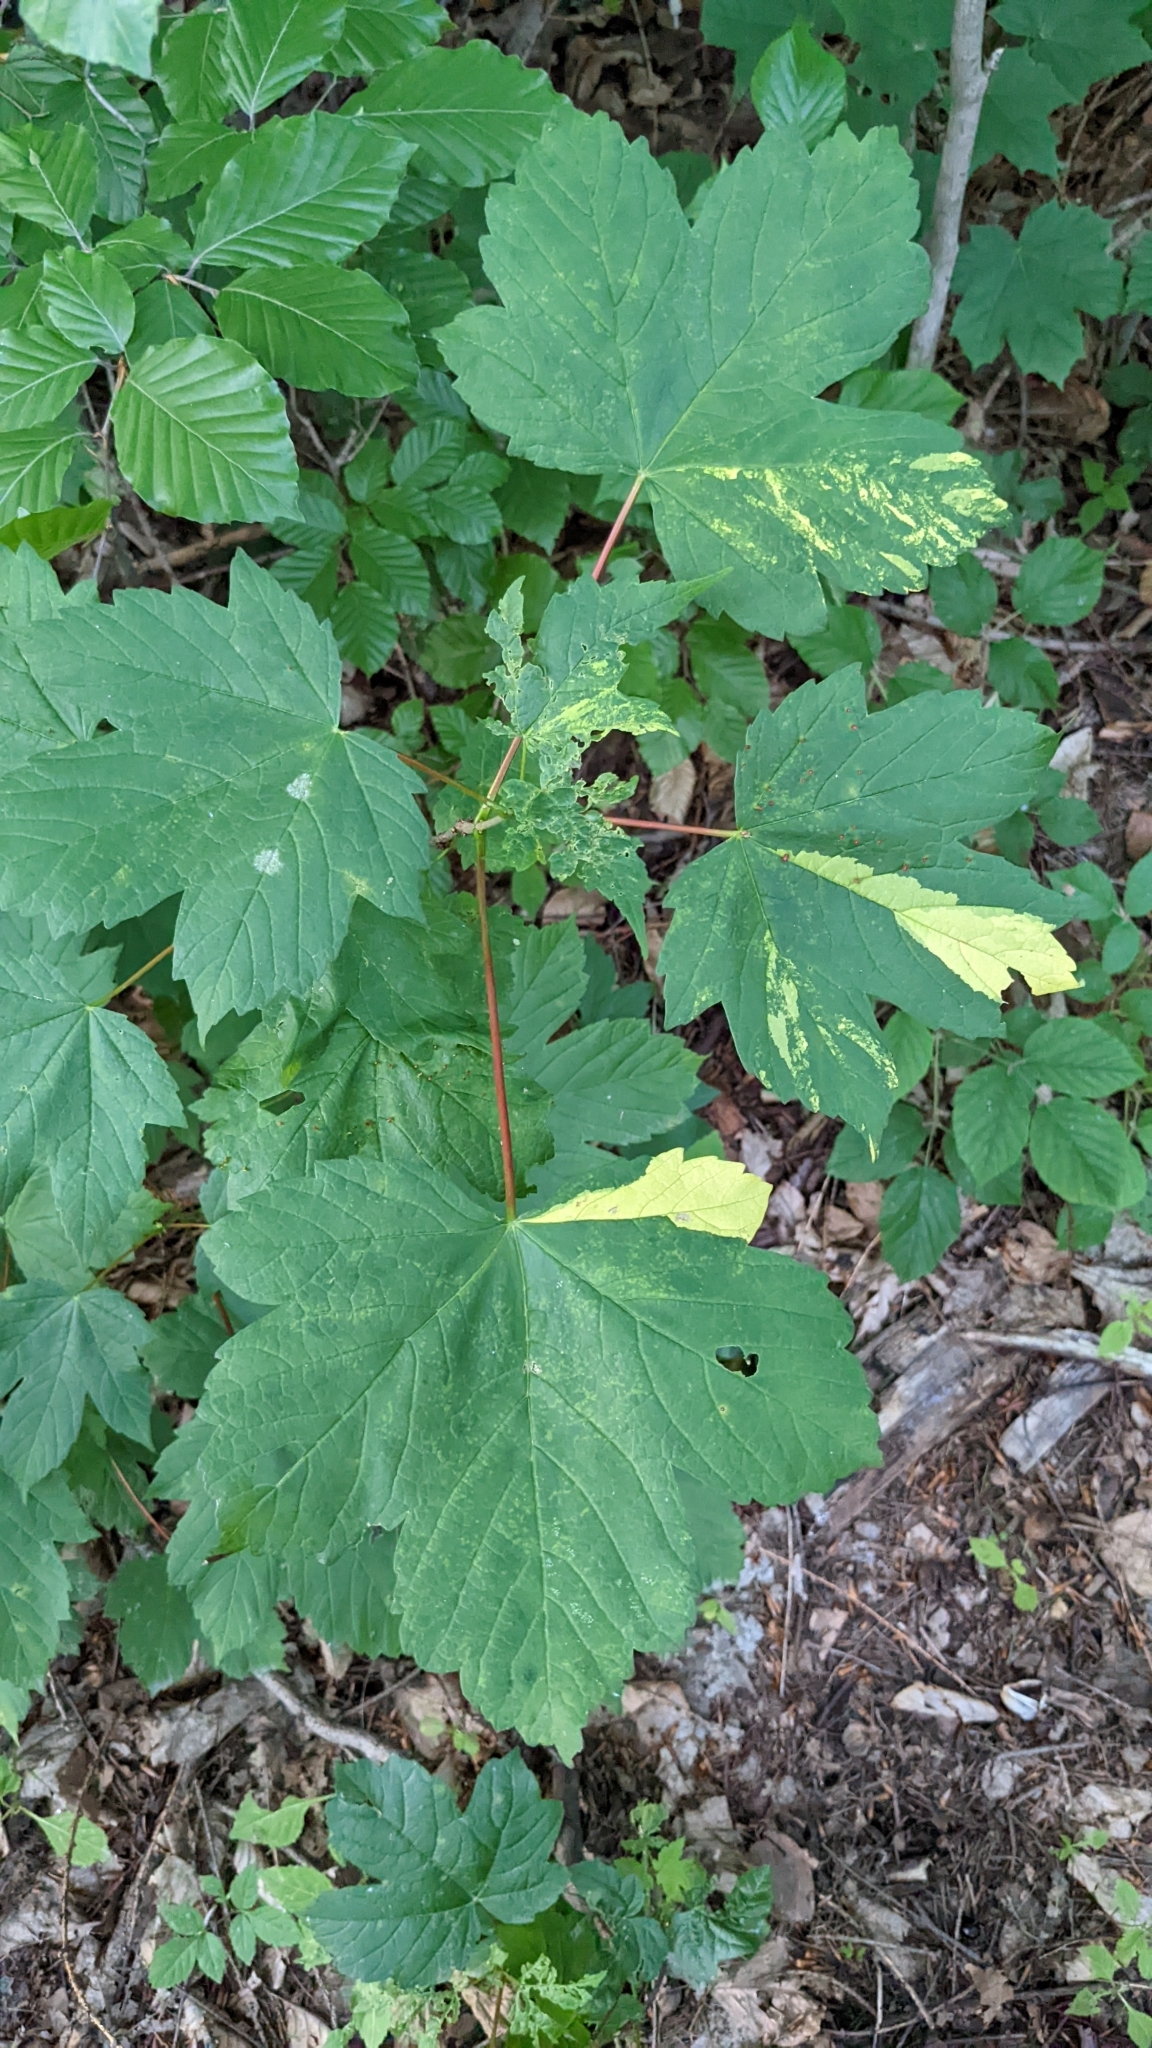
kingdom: Plantae
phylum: Tracheophyta
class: Magnoliopsida
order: Sapindales
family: Sapindaceae
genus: Acer
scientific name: Acer pseudoplatanus
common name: Sycamore
